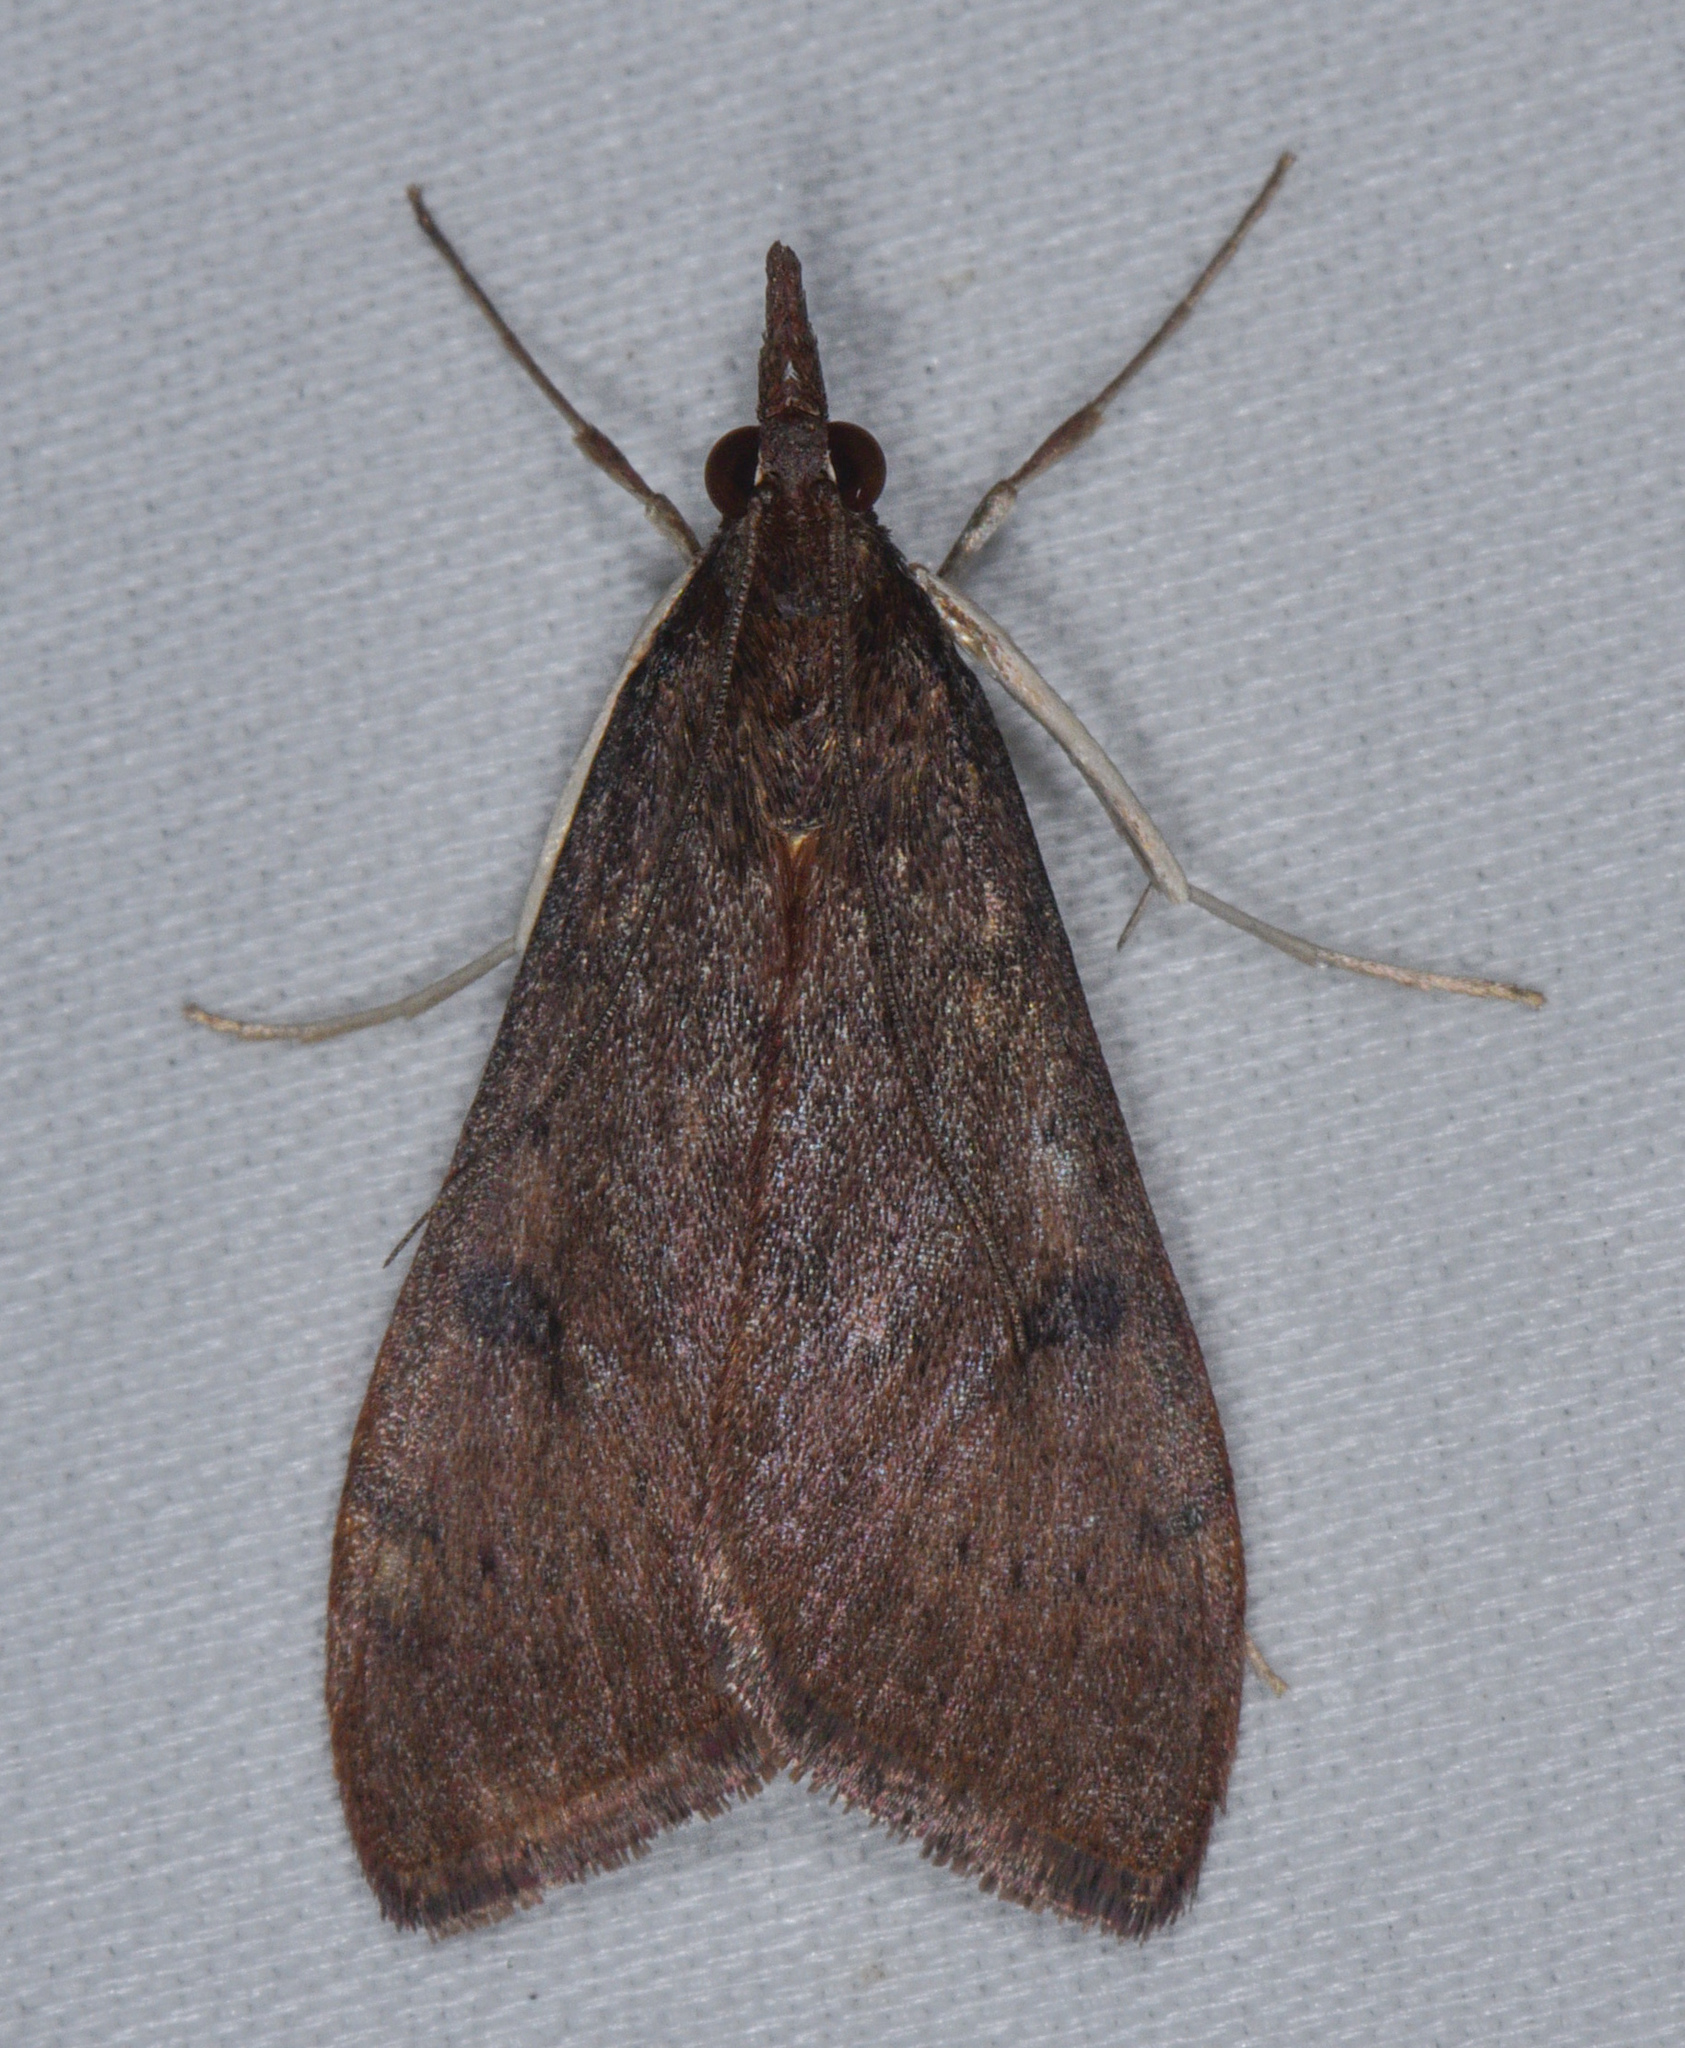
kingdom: Animalia
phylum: Arthropoda
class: Insecta
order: Lepidoptera
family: Crambidae
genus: Uresiphita
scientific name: Uresiphita reversalis
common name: Genista broom moth
